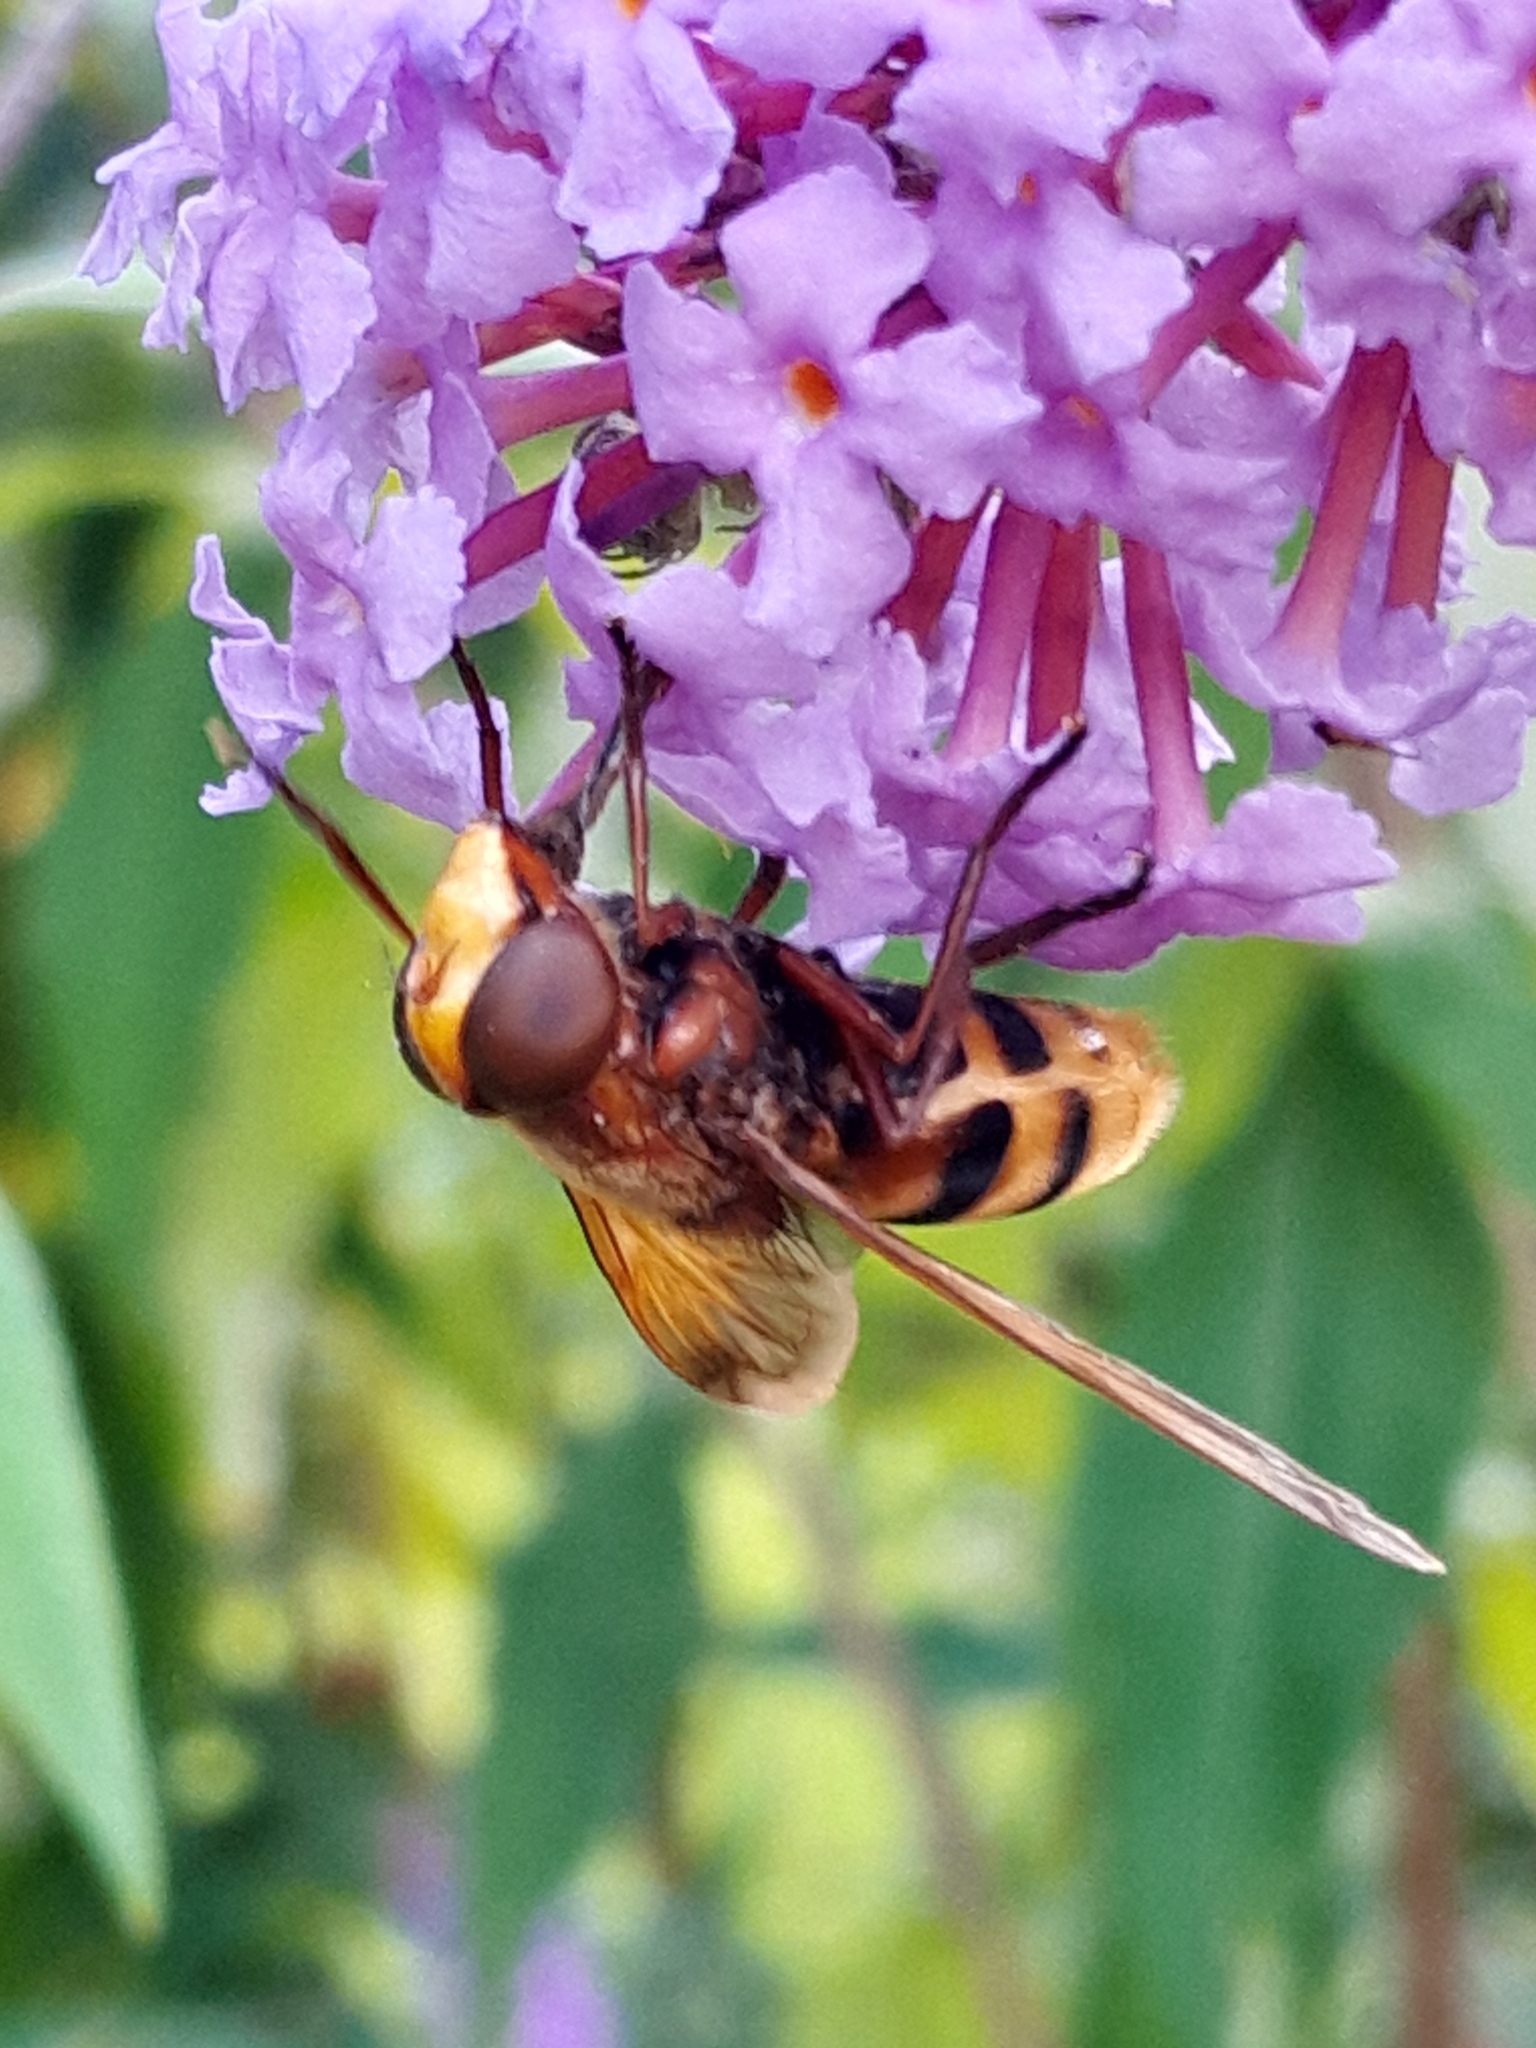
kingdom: Animalia
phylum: Arthropoda
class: Insecta
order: Diptera
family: Syrphidae
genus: Volucella
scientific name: Volucella zonaria
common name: Hornet hoverfly
